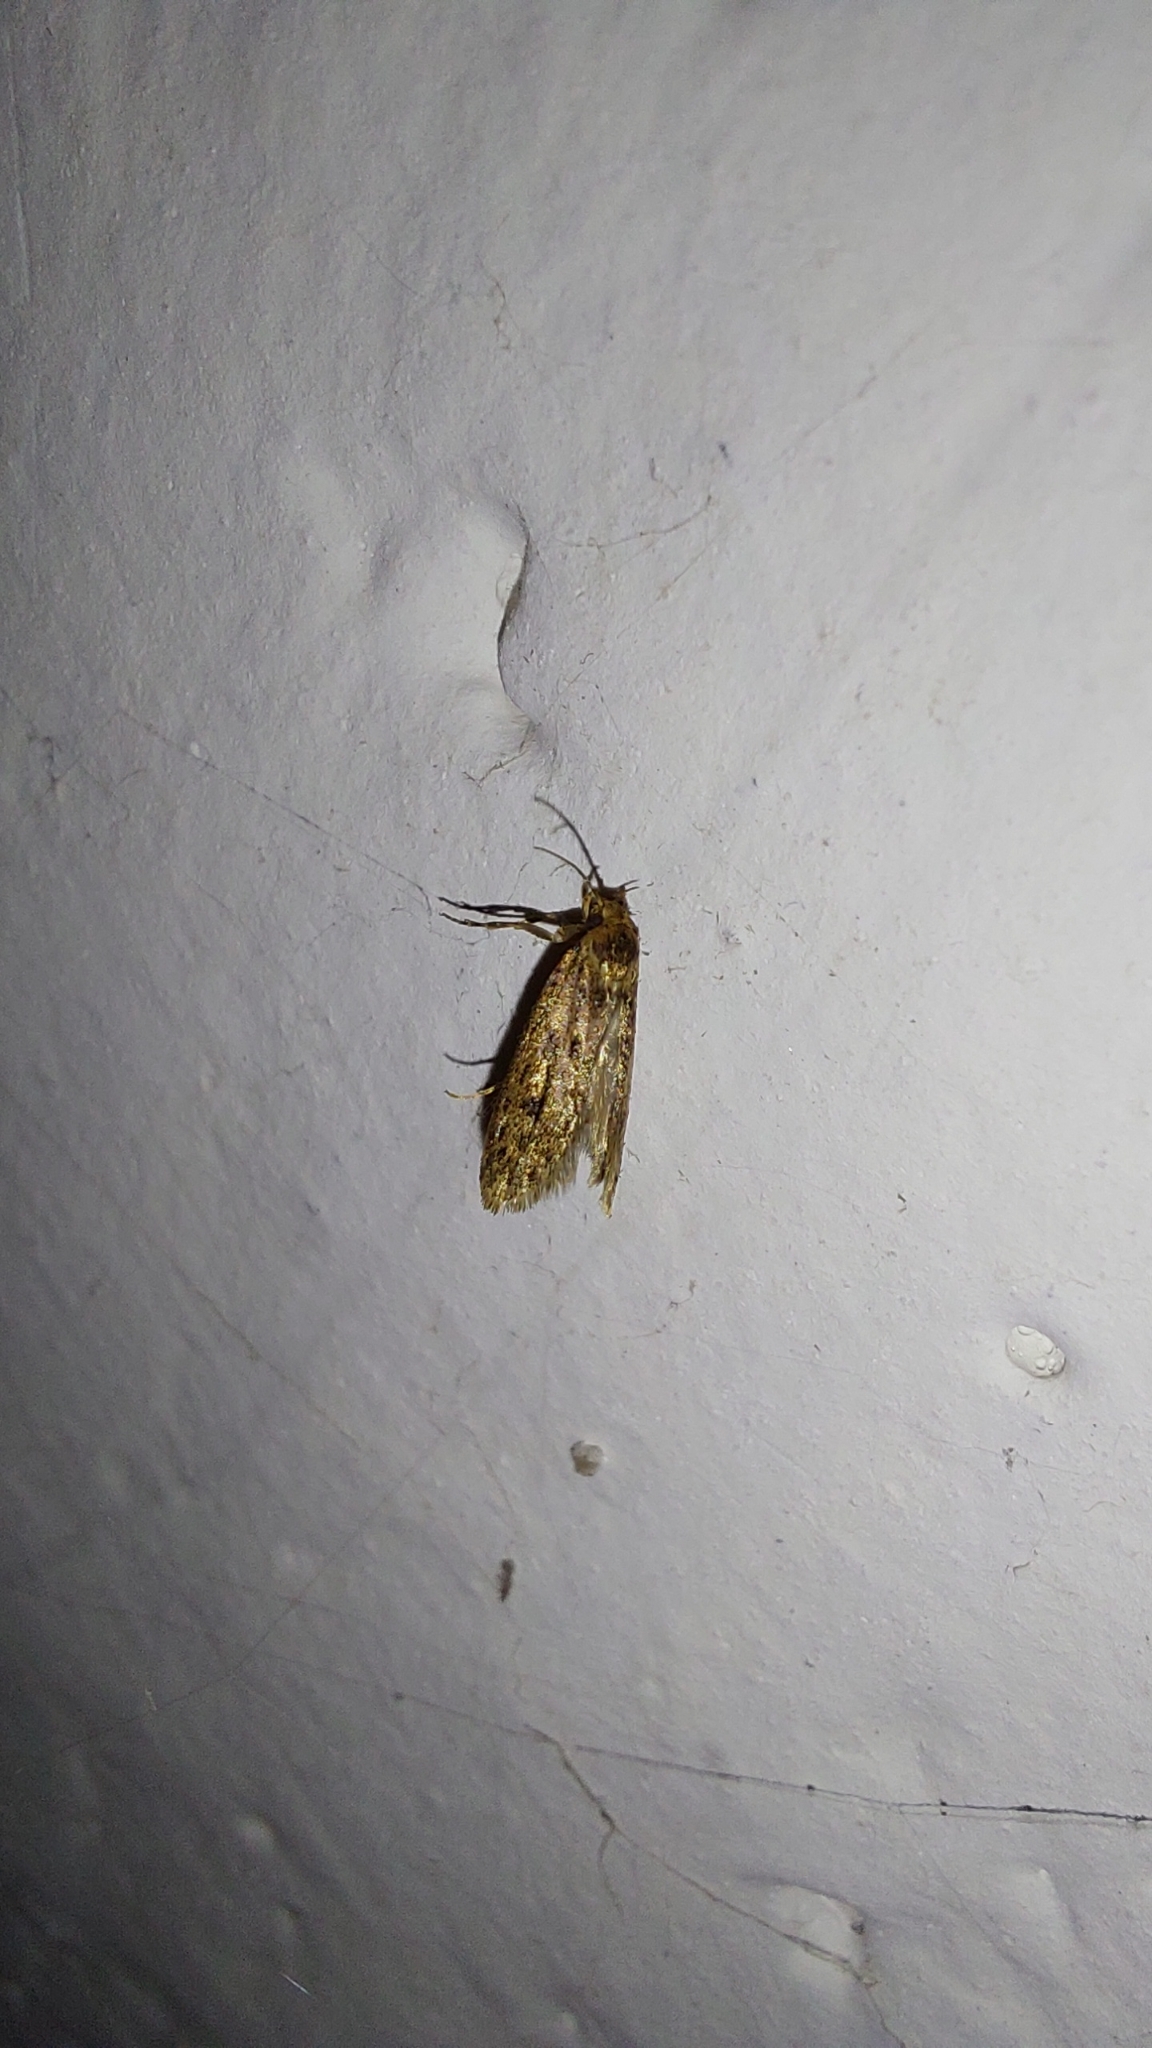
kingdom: Animalia
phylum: Arthropoda
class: Insecta
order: Lepidoptera
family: Oecophoridae
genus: Hofmannophila
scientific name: Hofmannophila pseudospretella
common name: Brown house moth
